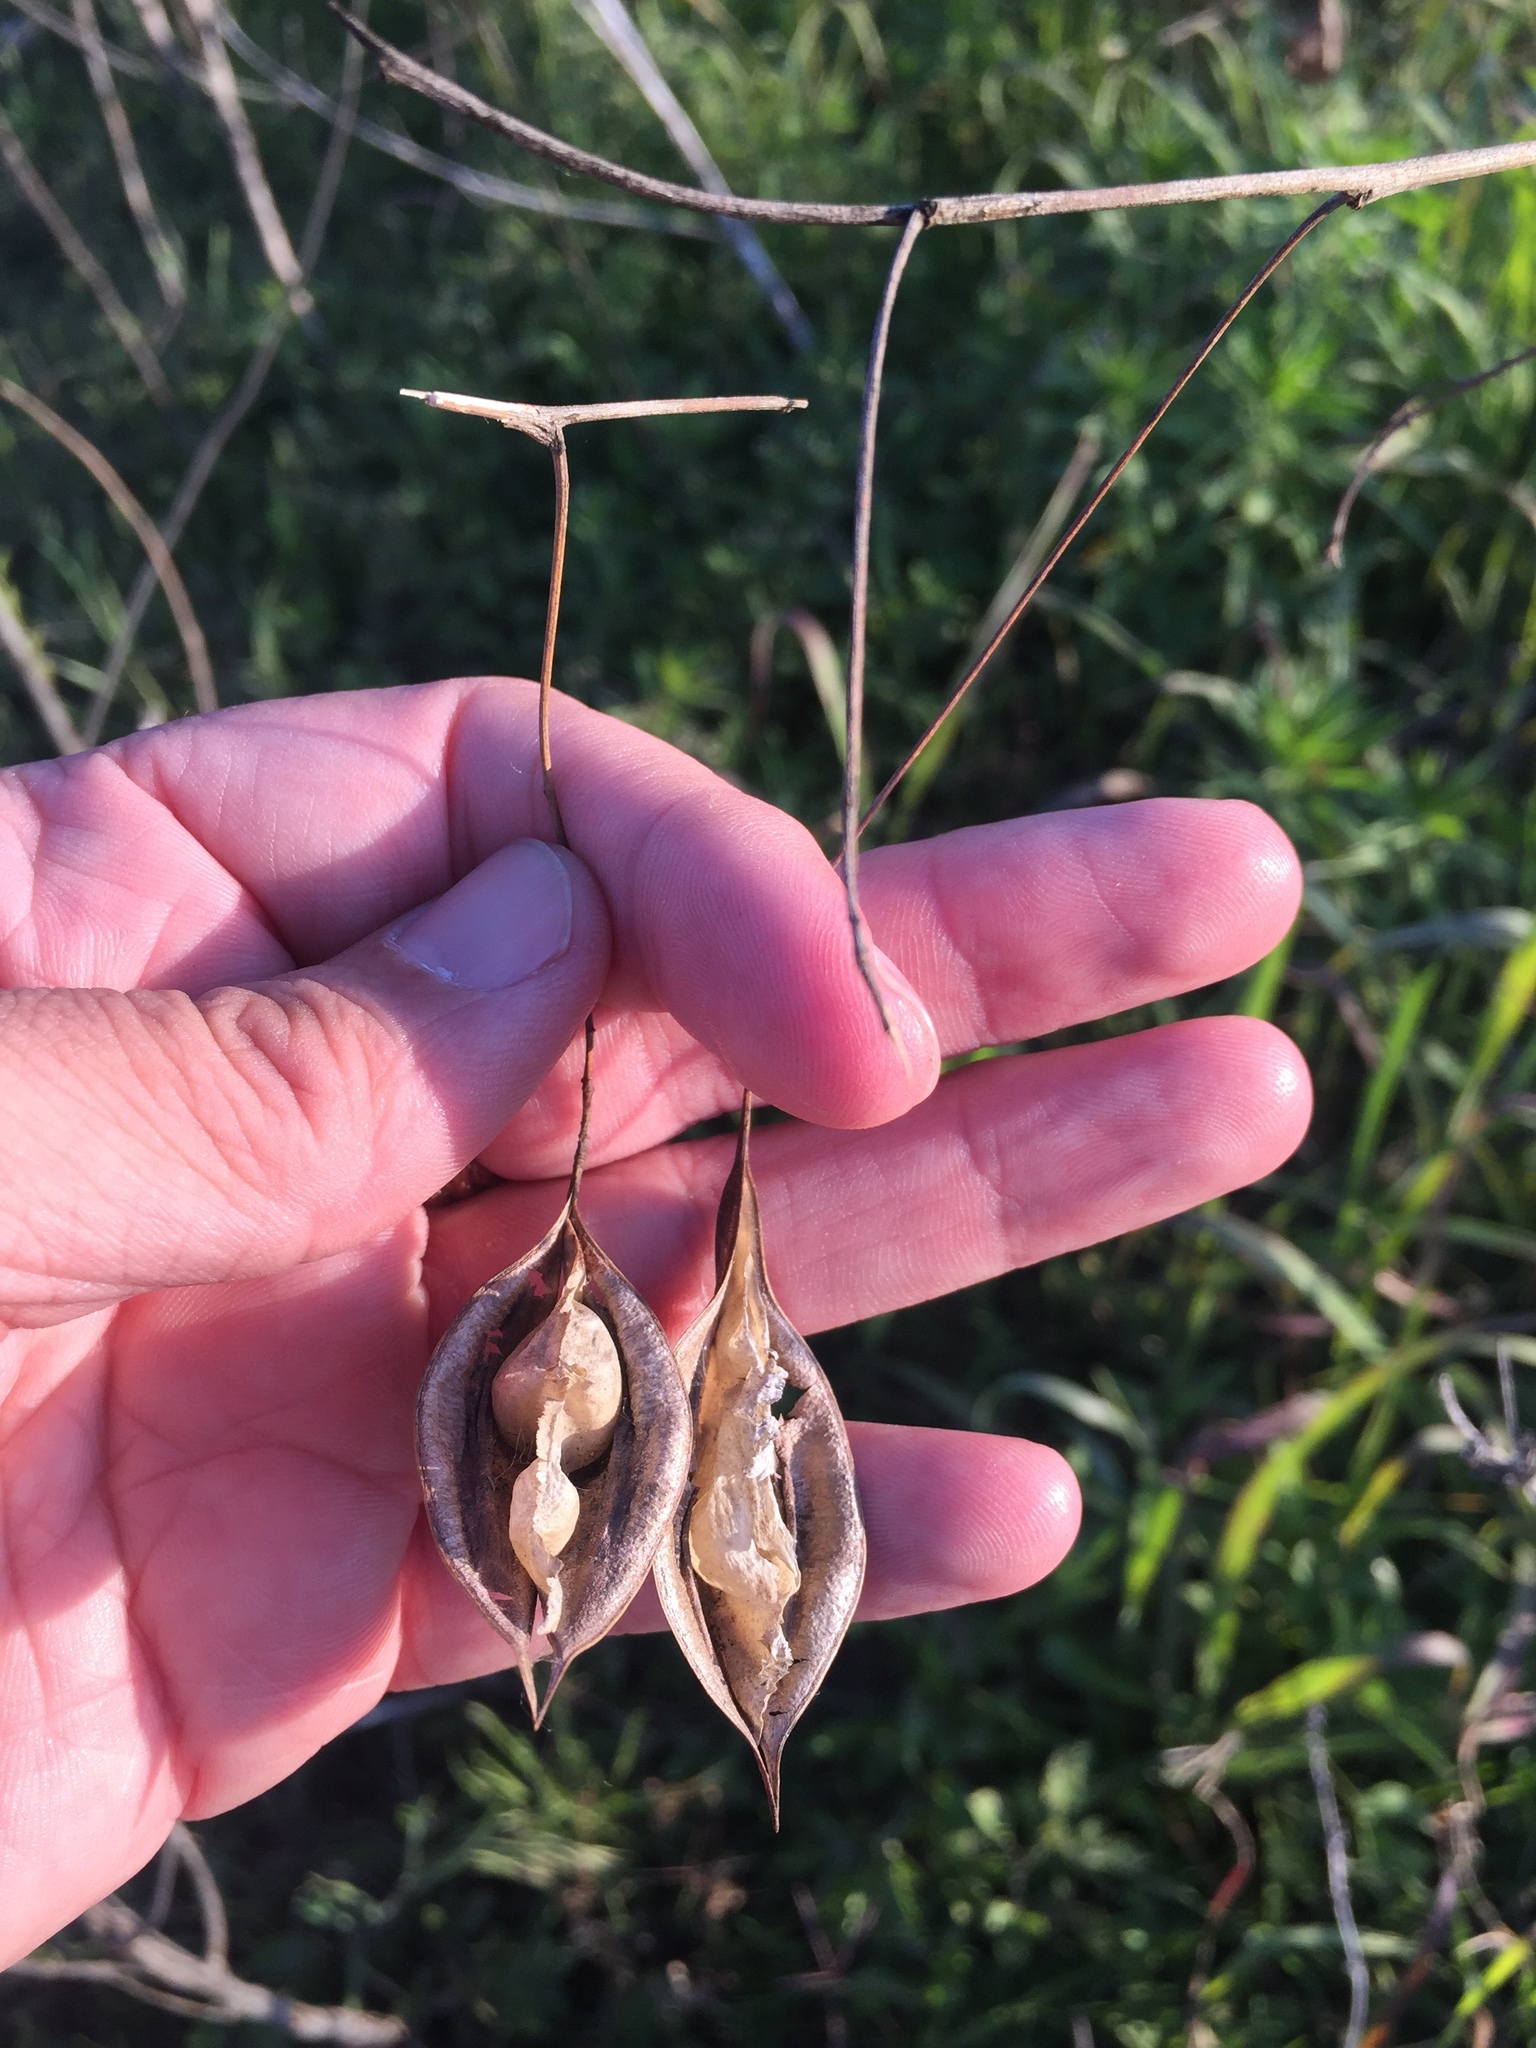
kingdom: Plantae
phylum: Tracheophyta
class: Magnoliopsida
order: Fabales
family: Fabaceae
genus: Sesbania
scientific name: Sesbania vesicaria
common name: Bagpod
